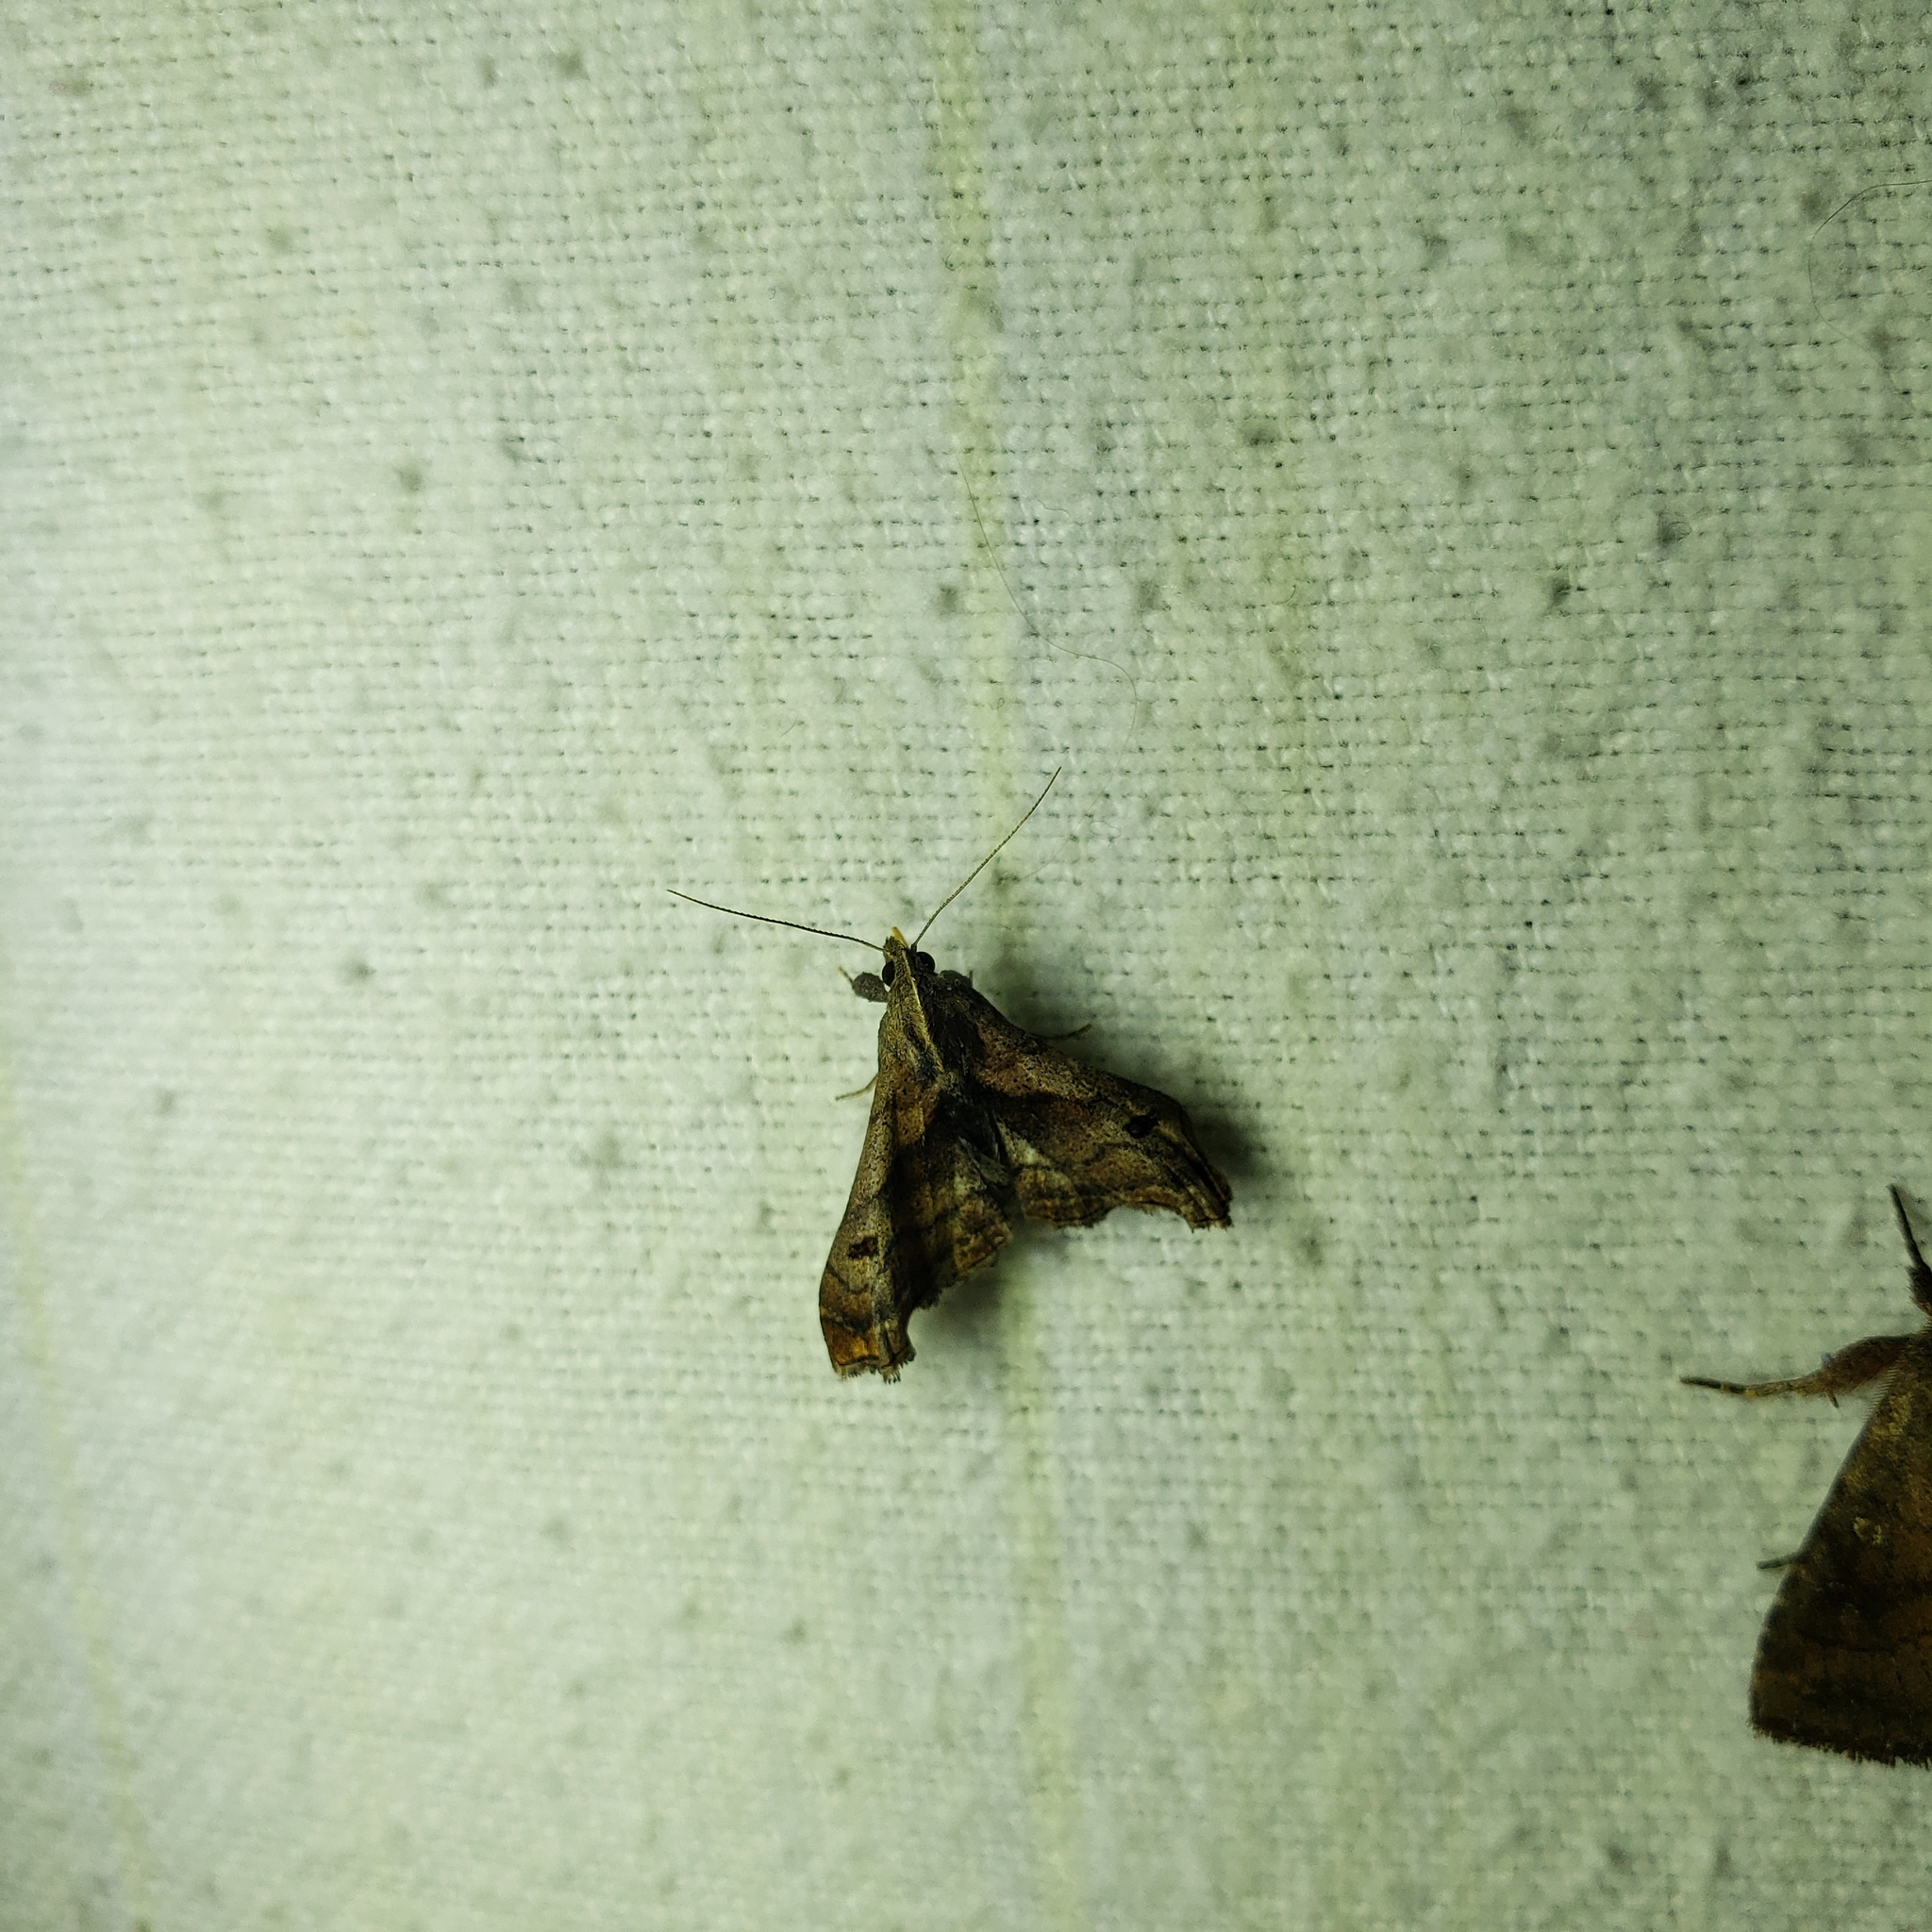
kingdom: Animalia
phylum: Arthropoda
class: Insecta
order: Lepidoptera
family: Erebidae
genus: Palthis
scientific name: Palthis angulalis
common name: Dark-spotted palthis moth
